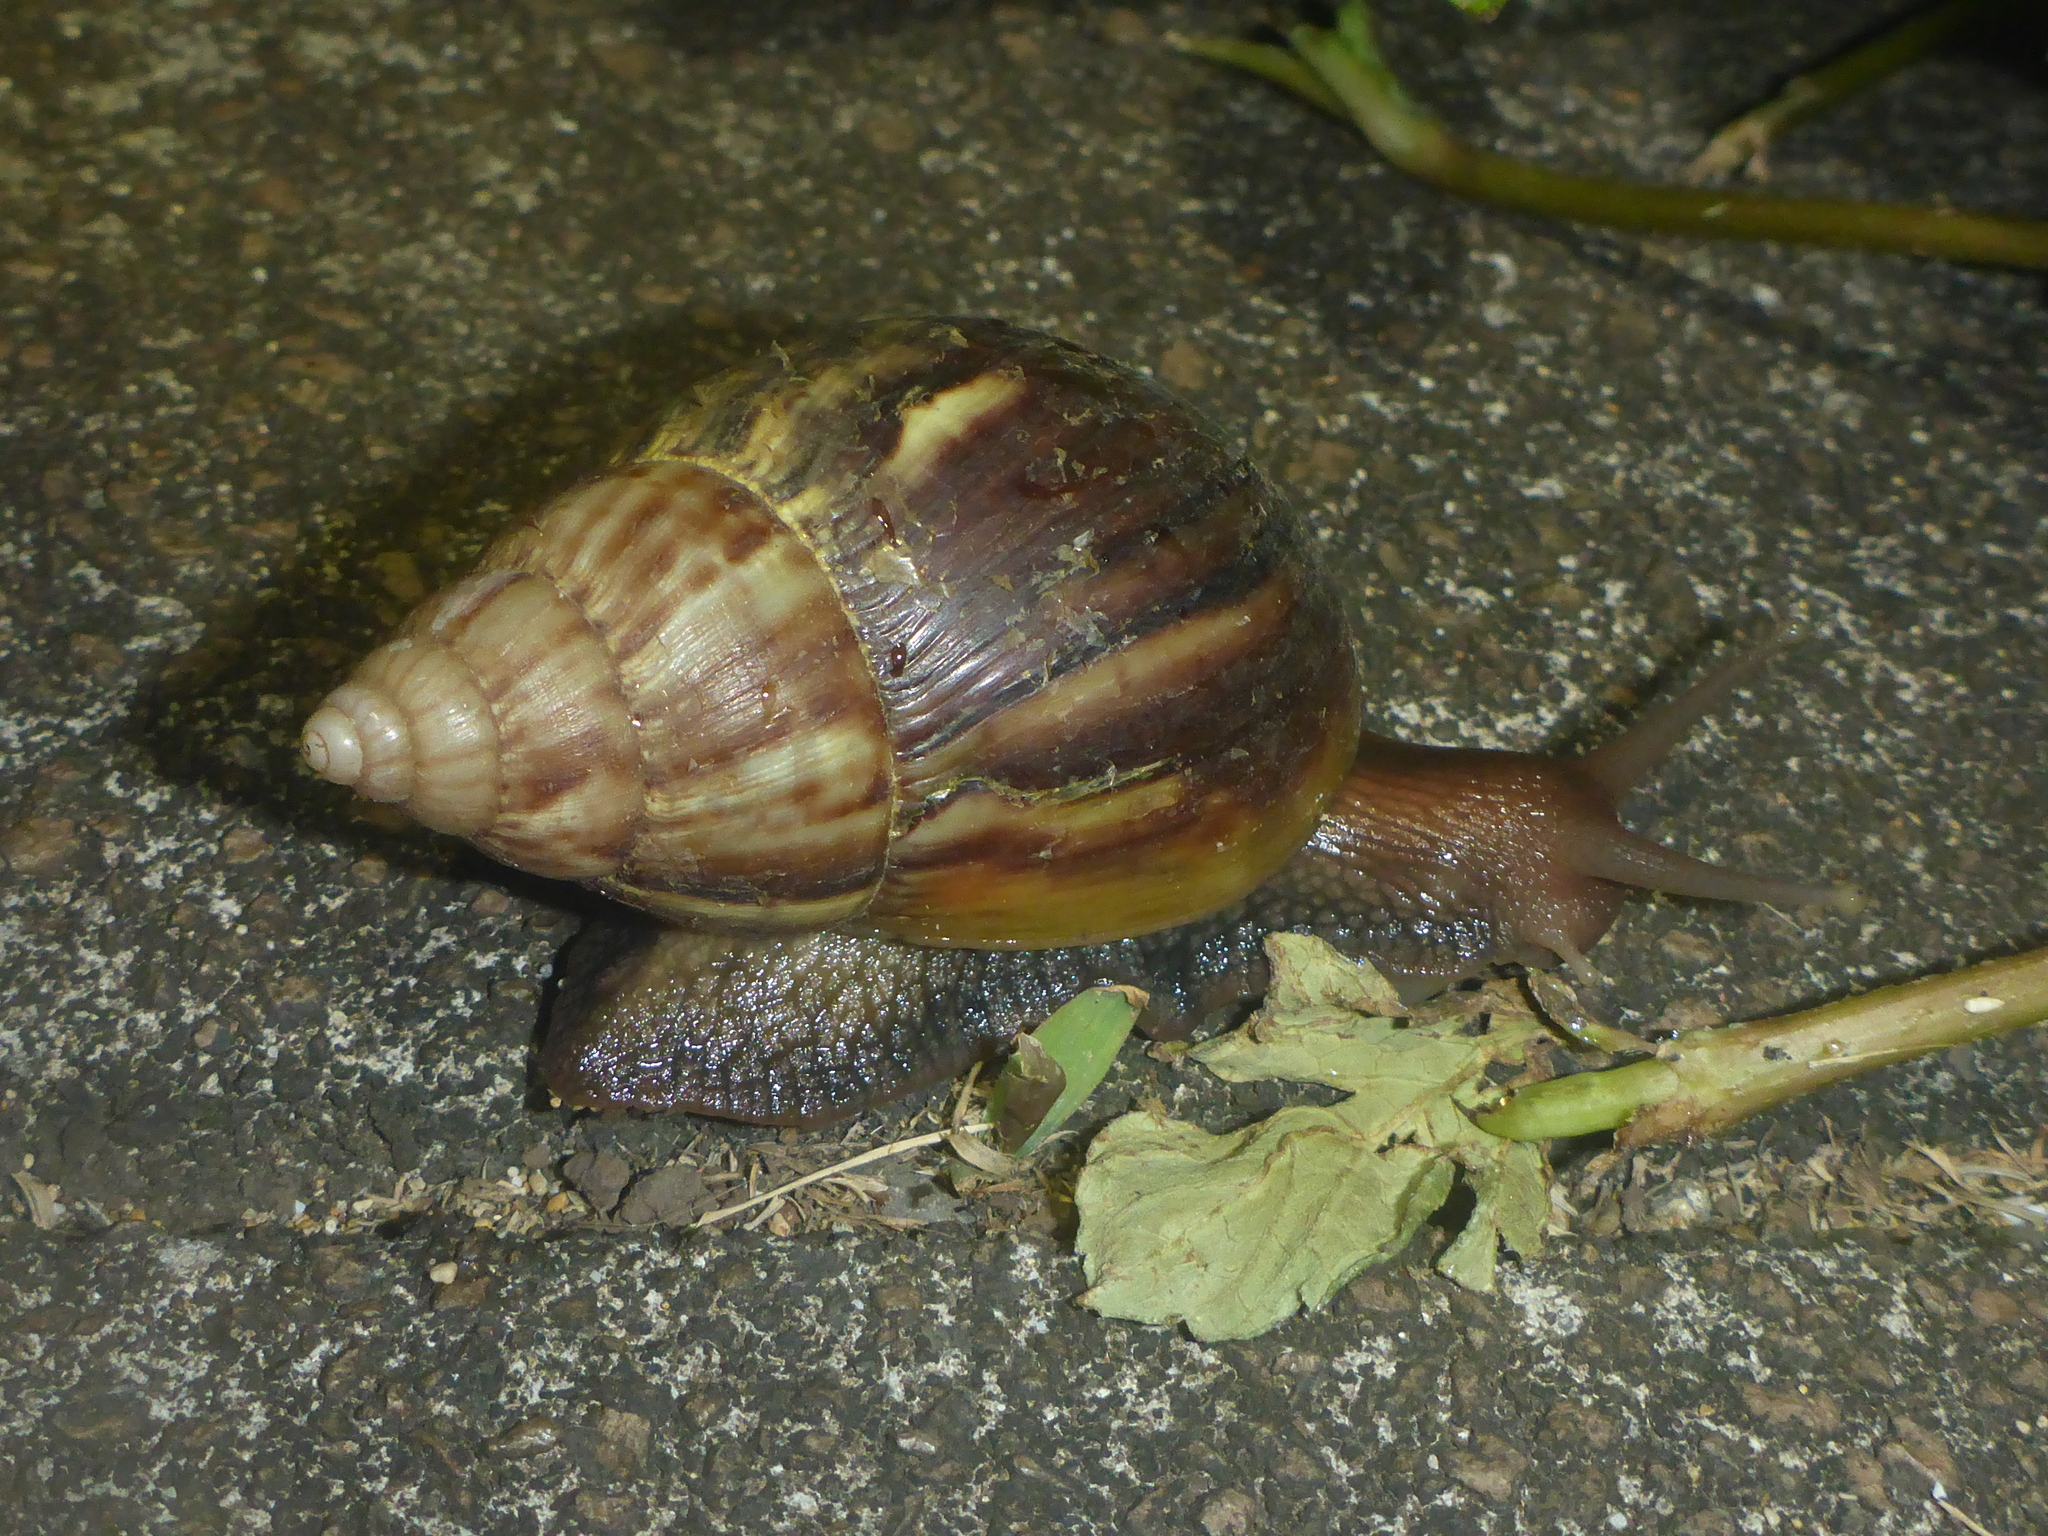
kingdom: Animalia
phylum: Mollusca
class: Gastropoda
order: Stylommatophora
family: Achatinidae
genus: Lissachatina
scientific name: Lissachatina fulica
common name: Giant african snail
